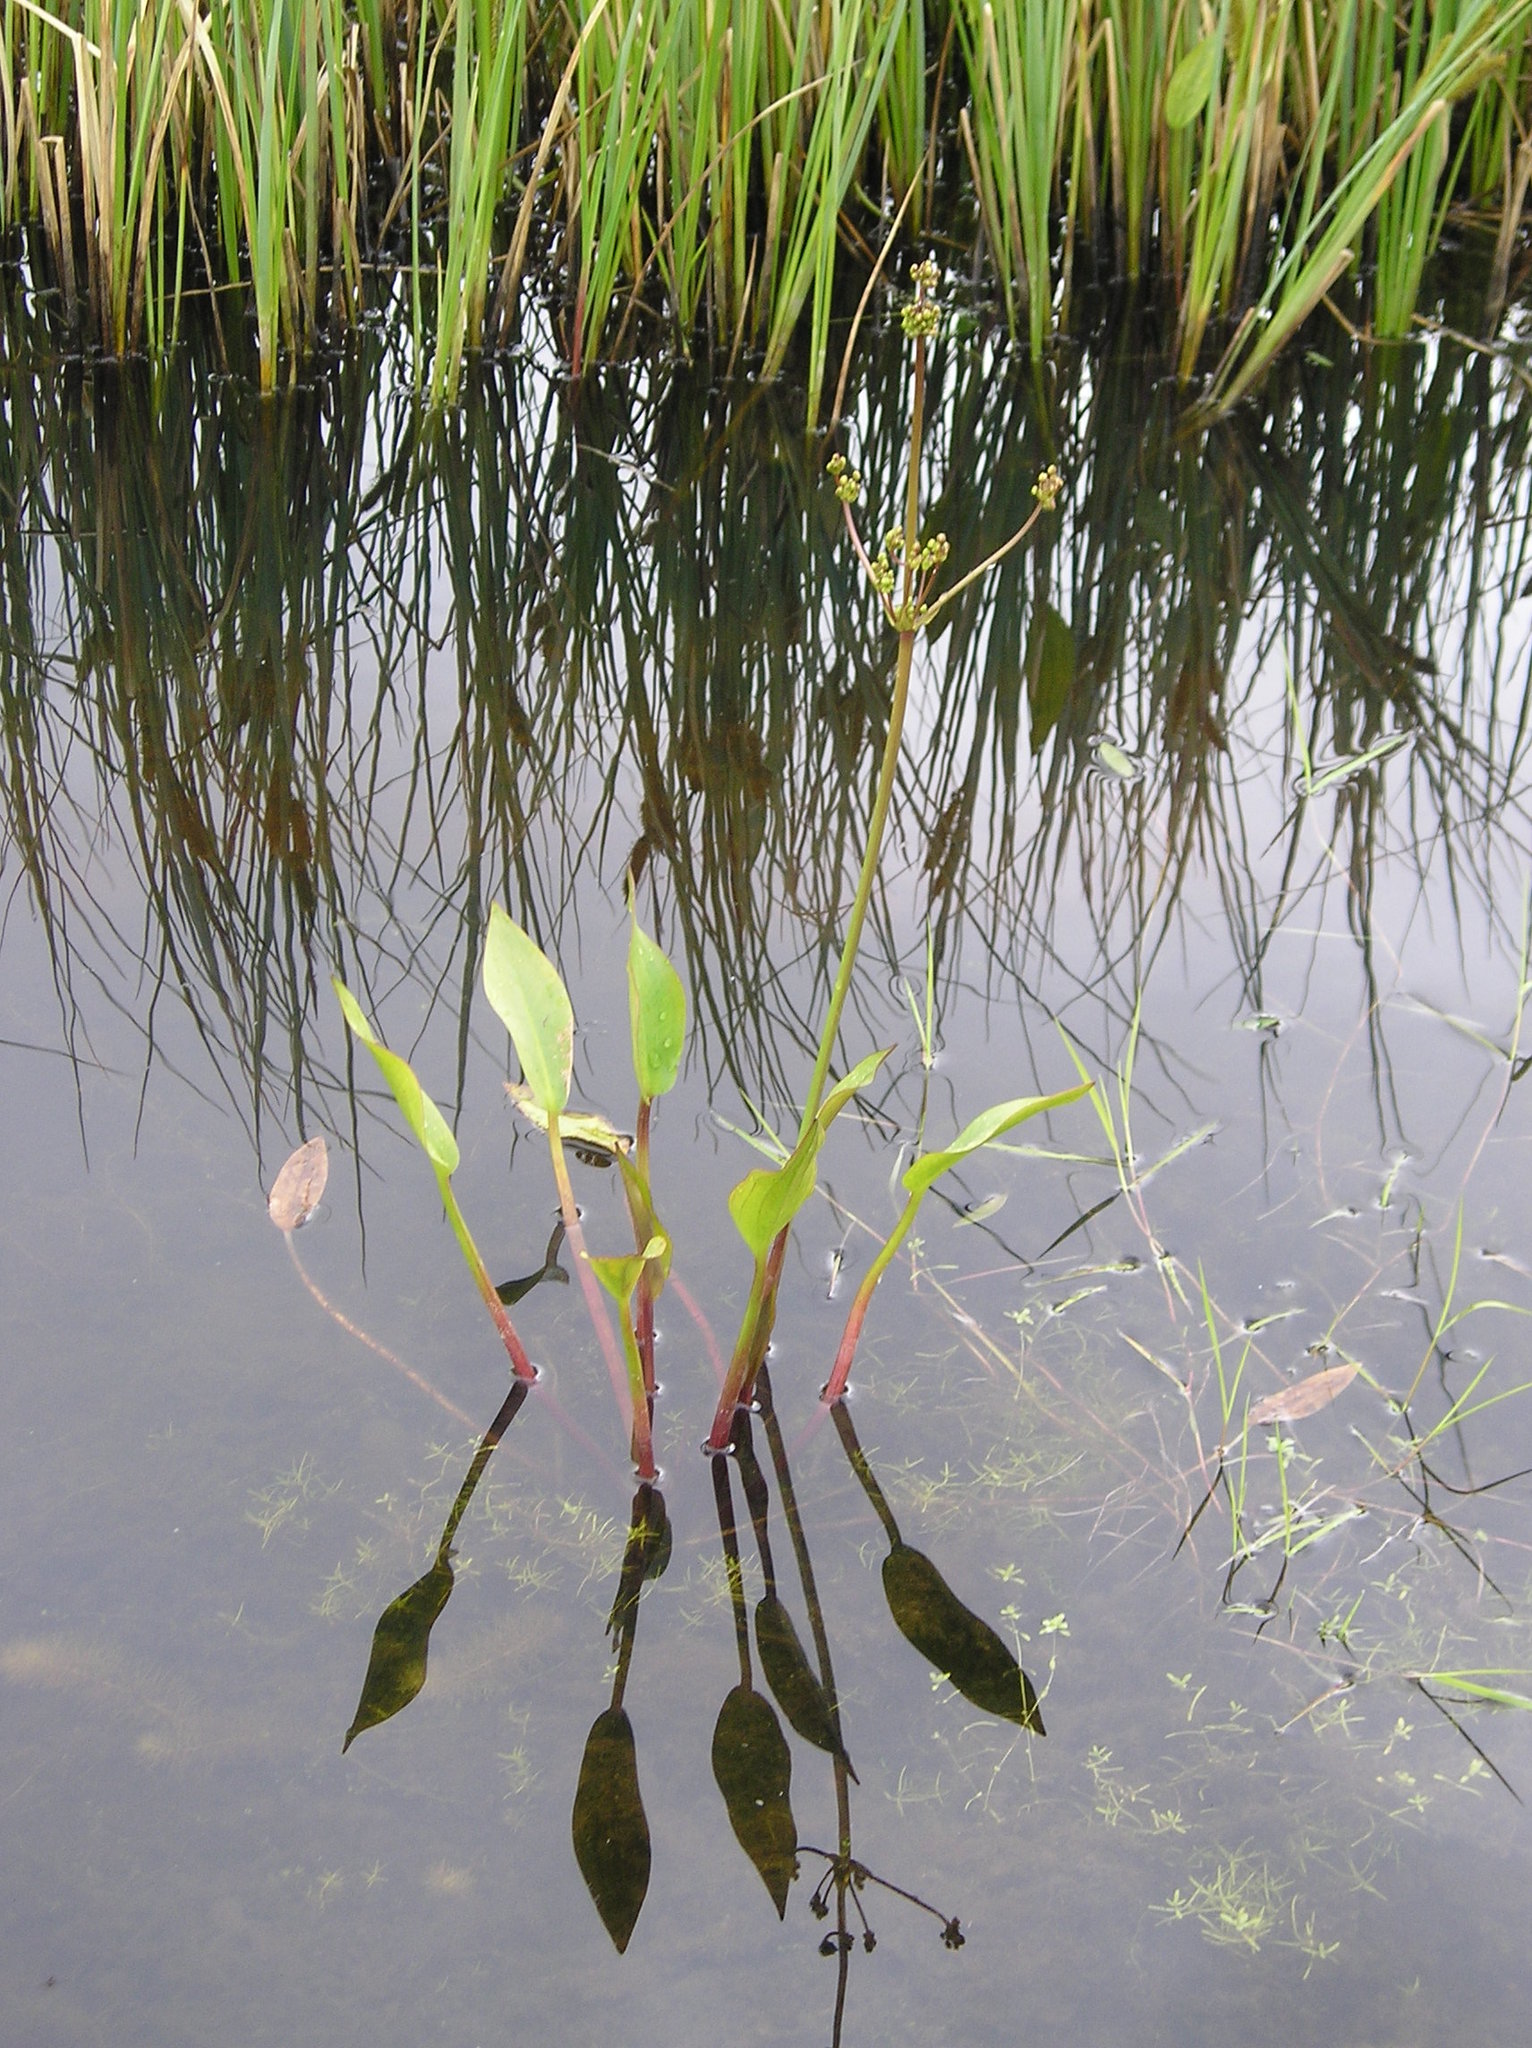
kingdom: Plantae
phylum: Tracheophyta
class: Liliopsida
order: Alismatales
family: Alismataceae
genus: Alisma
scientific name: Alisma plantago-aquatica
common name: Water-plantain
